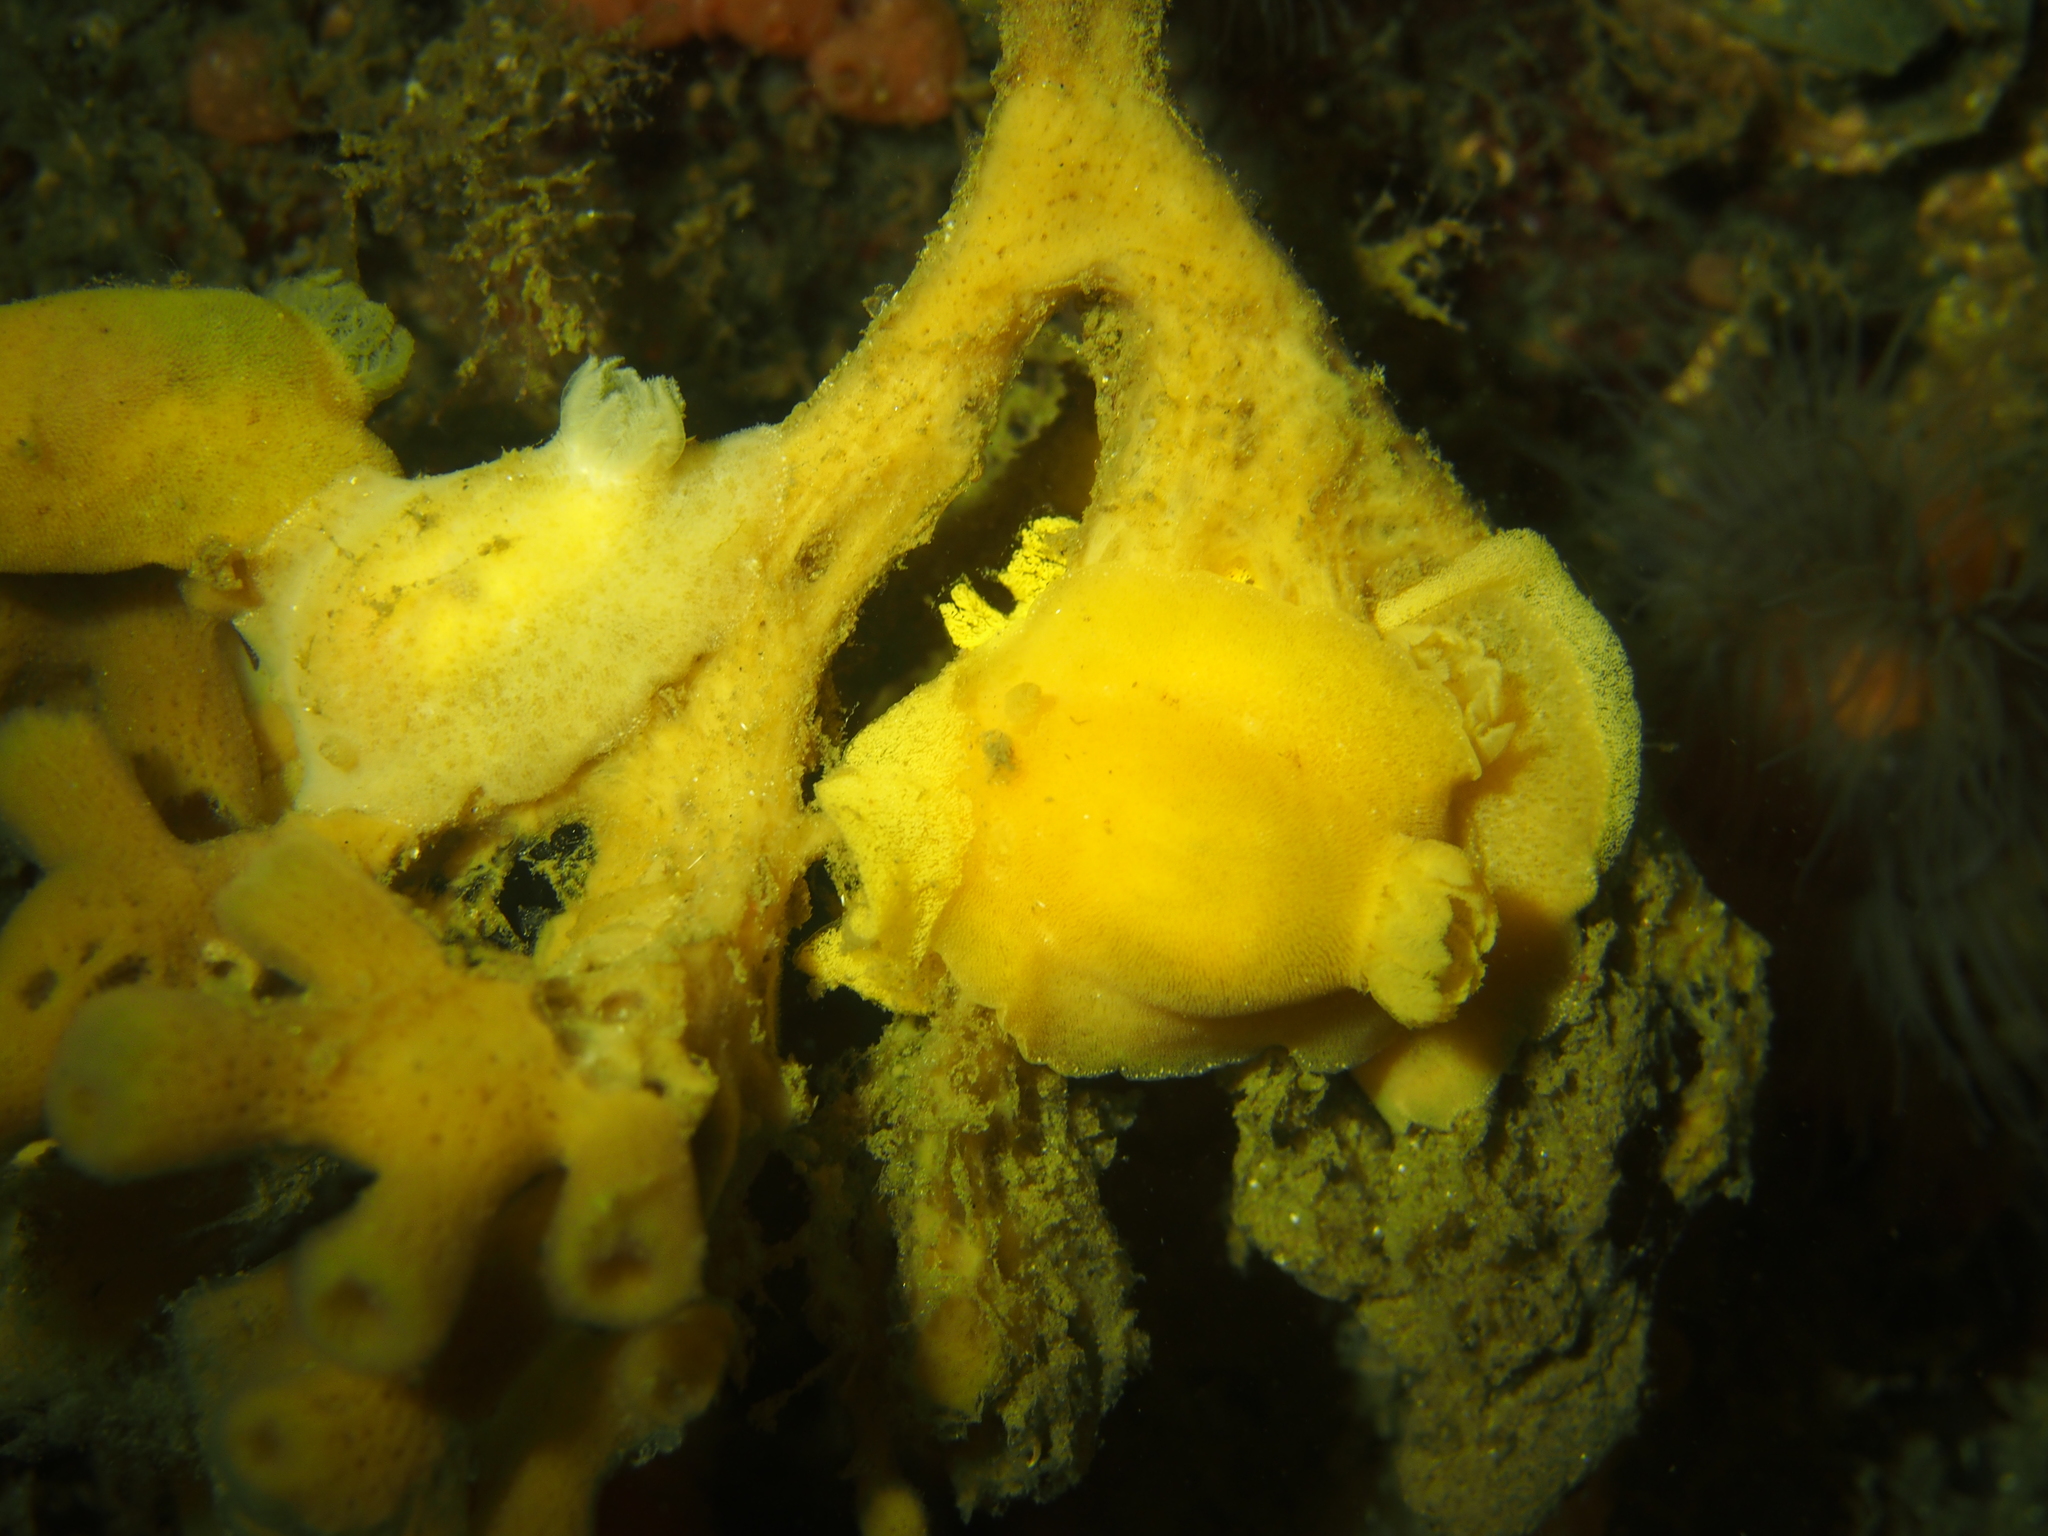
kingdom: Animalia
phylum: Mollusca
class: Gastropoda
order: Nudibranchia
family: Discodorididae
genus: Jorunna
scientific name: Jorunna tomentosa
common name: Grey sea slug
